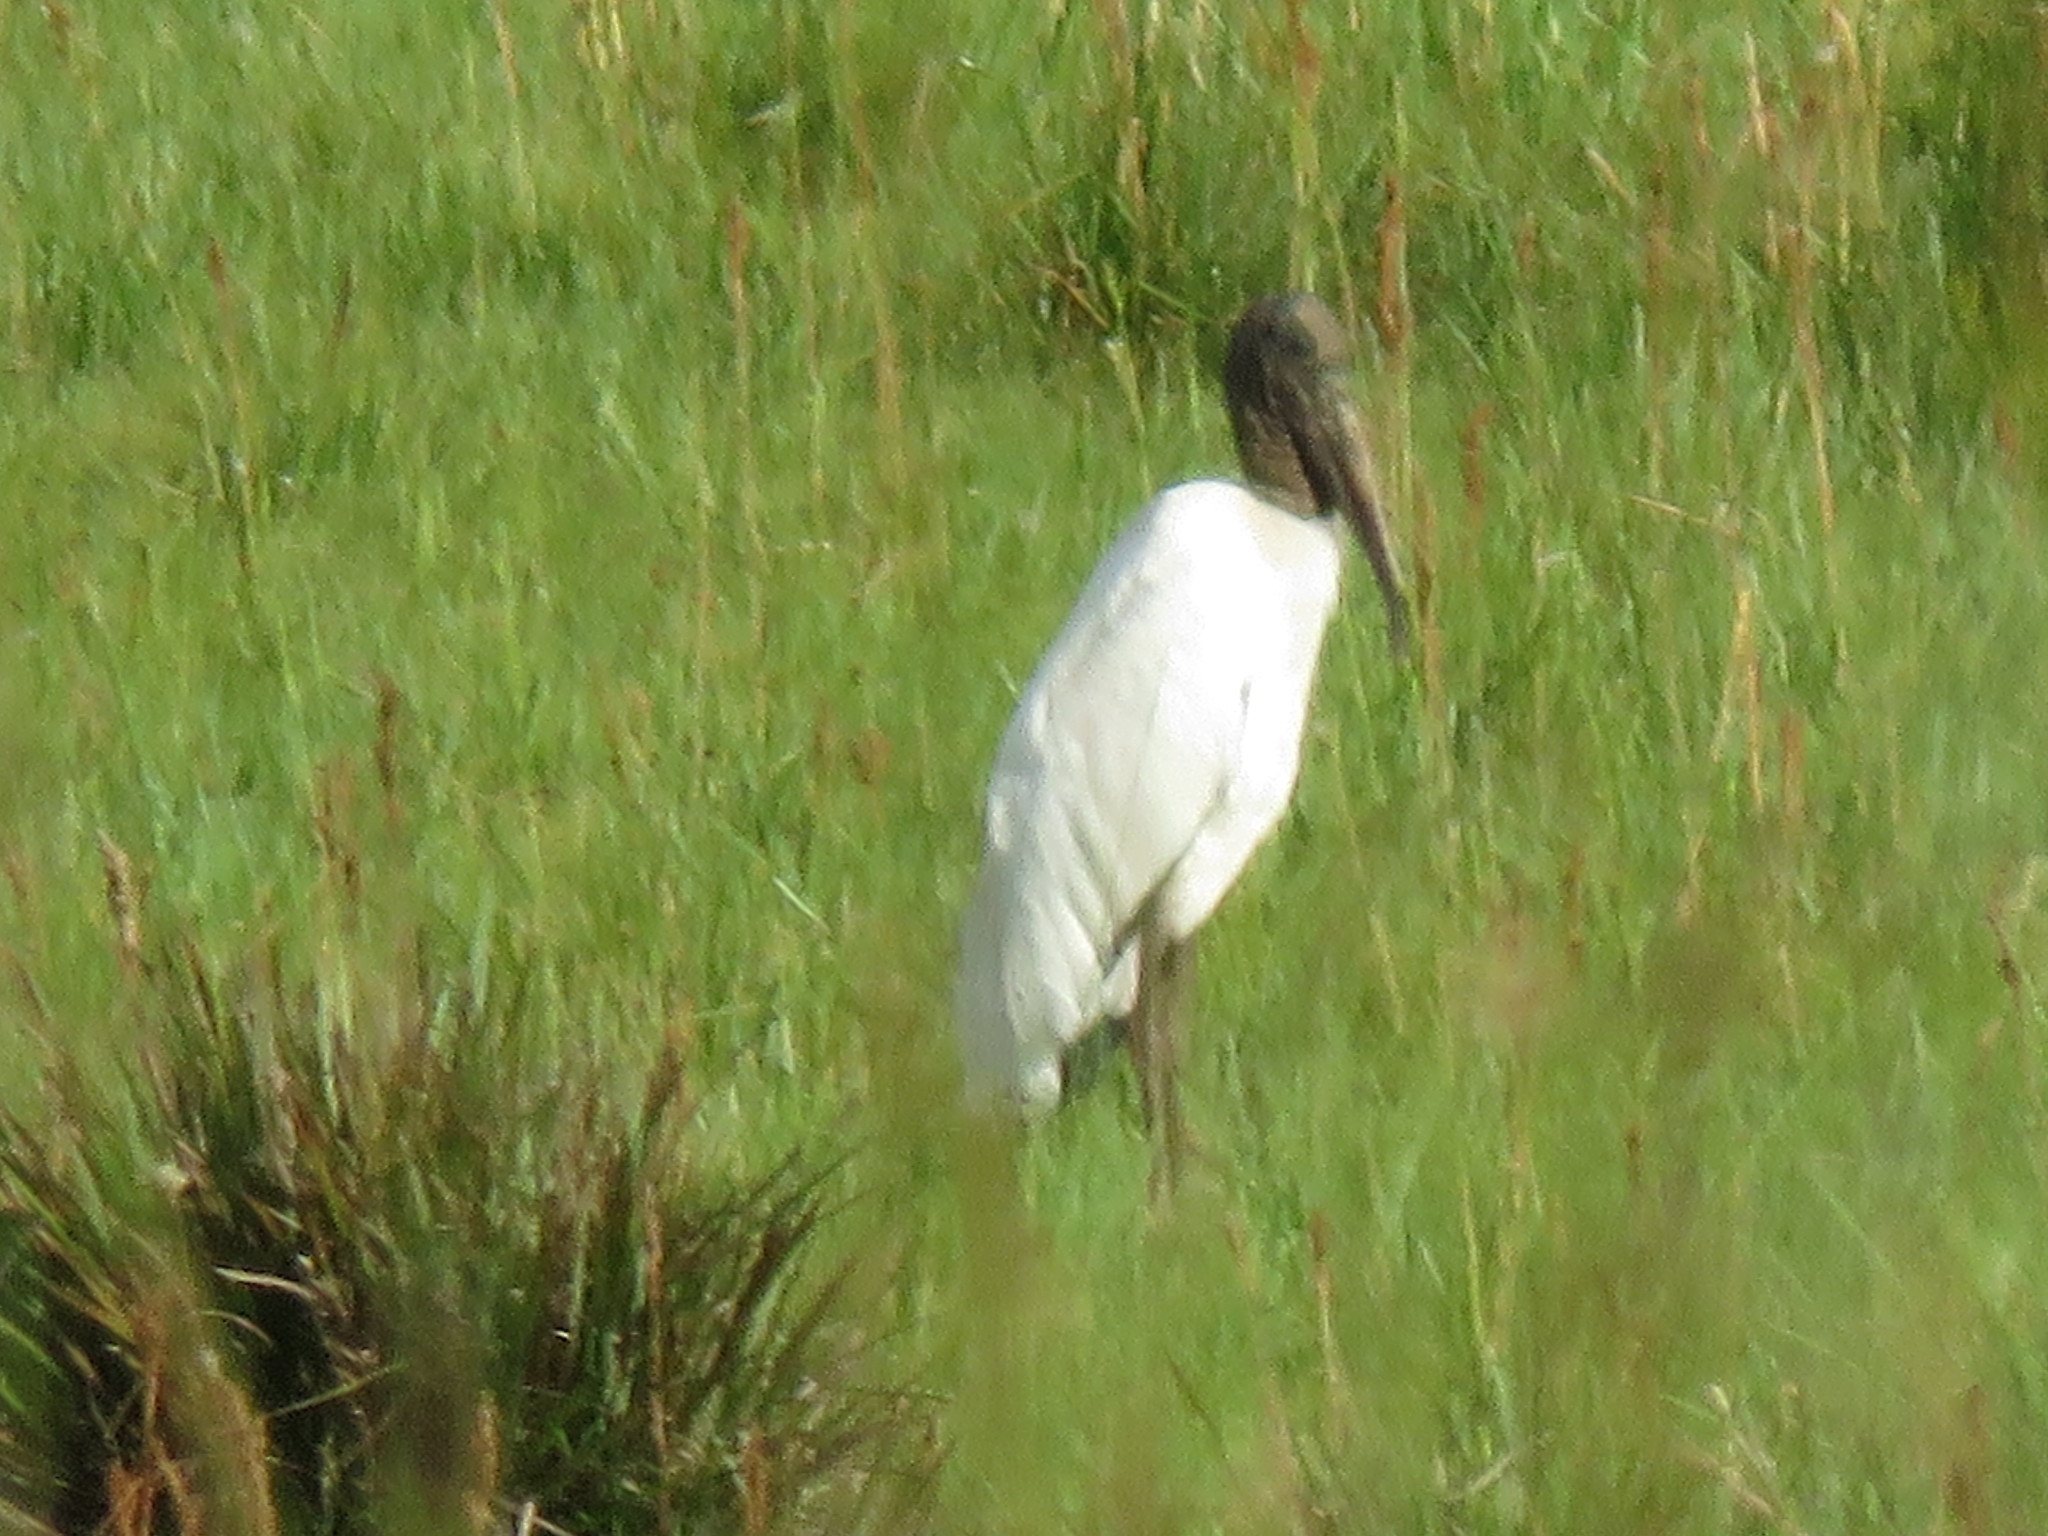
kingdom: Animalia
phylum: Chordata
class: Aves
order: Ciconiiformes
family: Ciconiidae
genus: Mycteria
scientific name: Mycteria americana
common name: Wood stork
